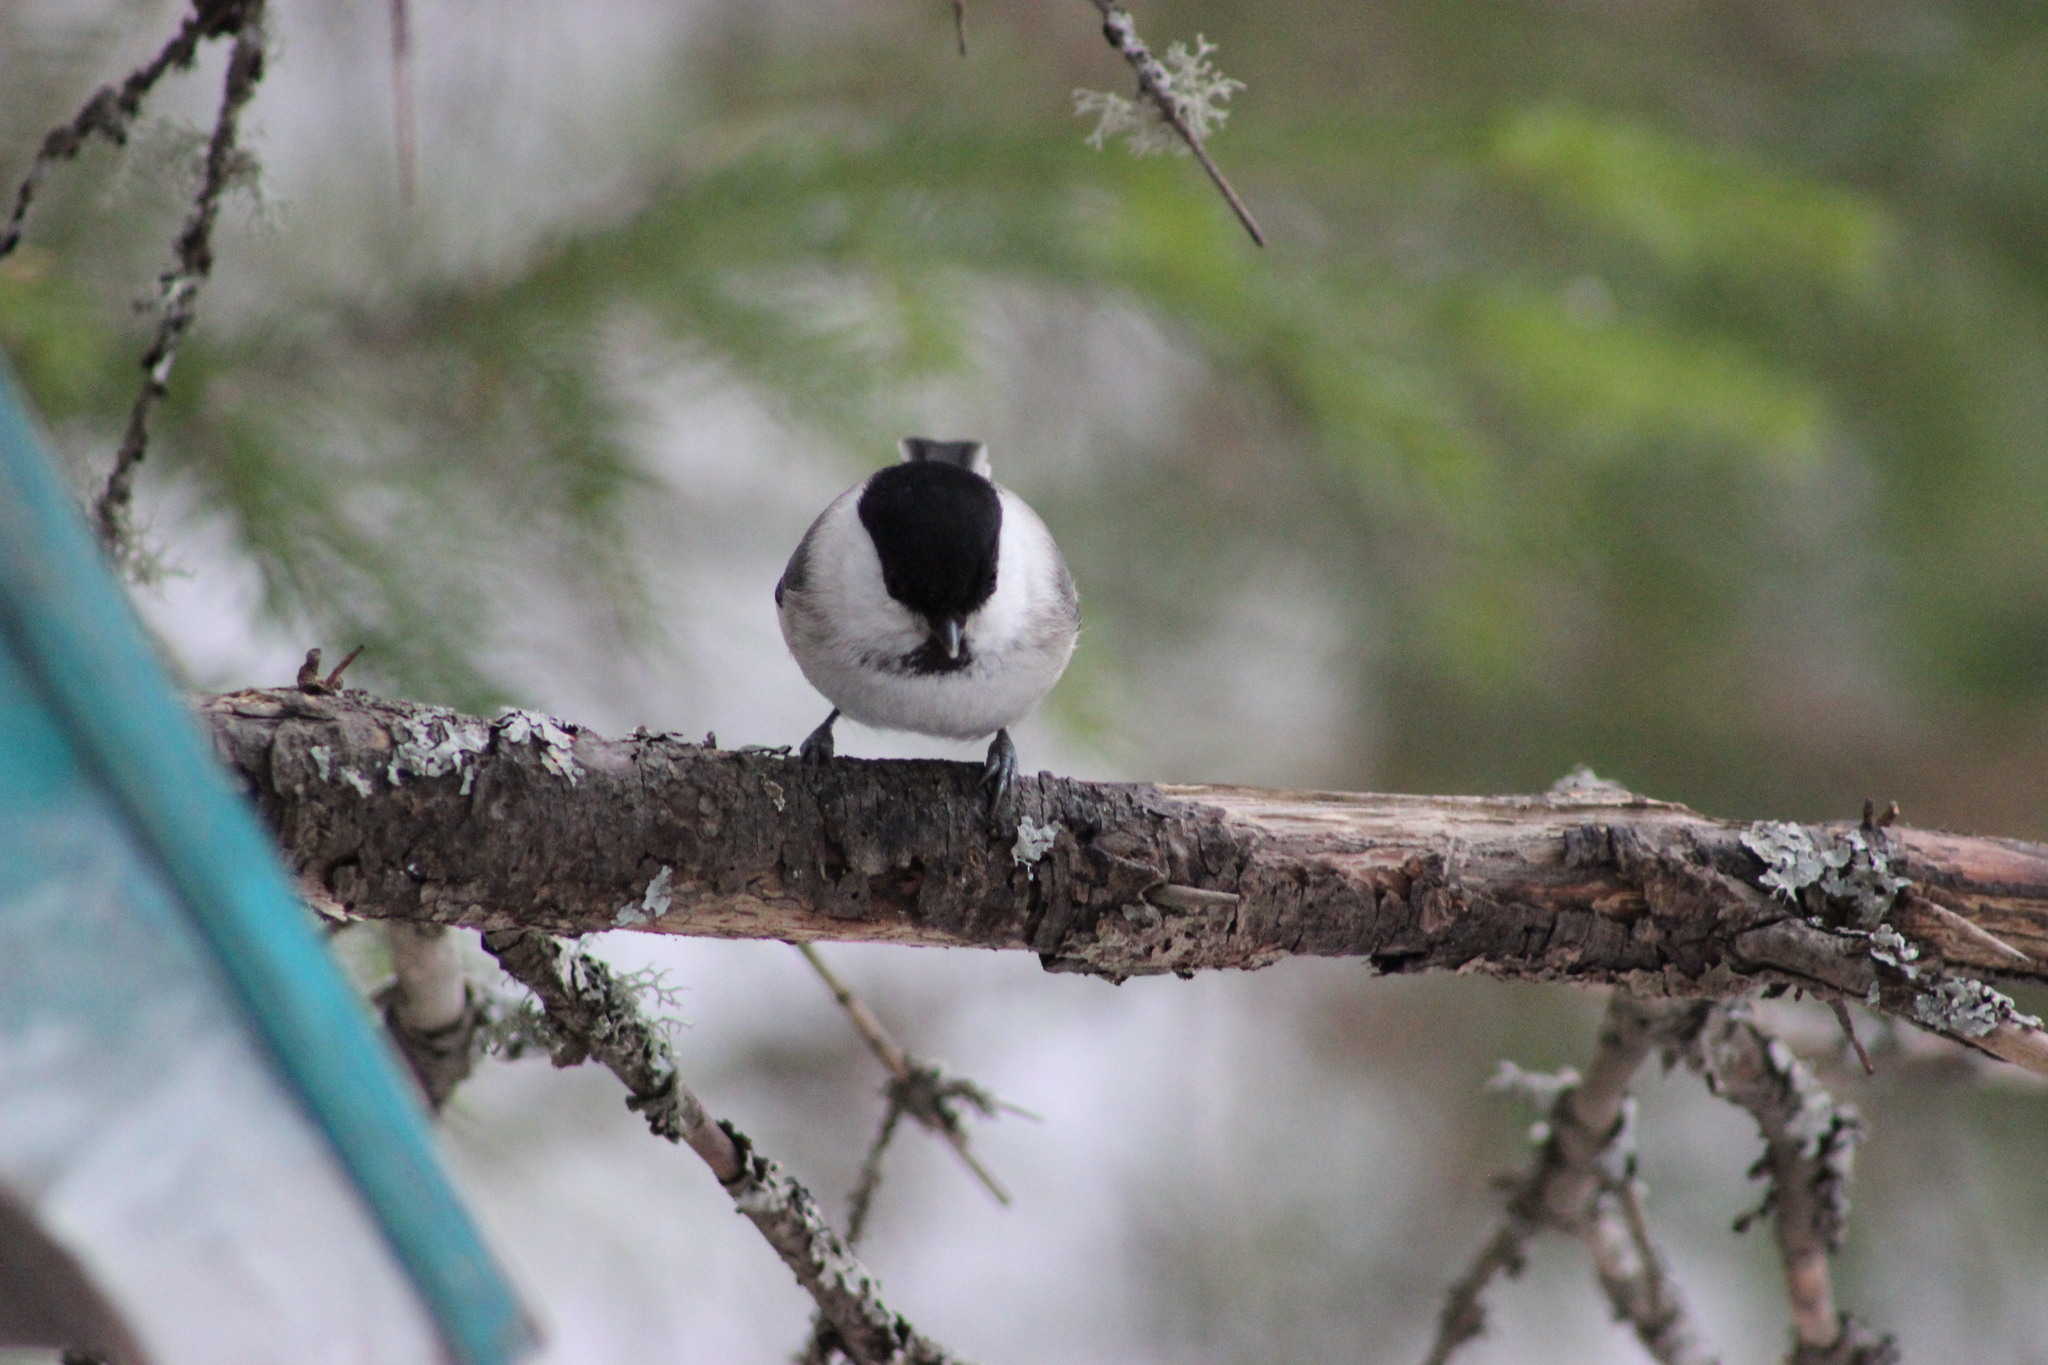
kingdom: Animalia
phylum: Chordata
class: Aves
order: Passeriformes
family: Paridae
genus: Poecile
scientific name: Poecile montanus
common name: Willow tit
